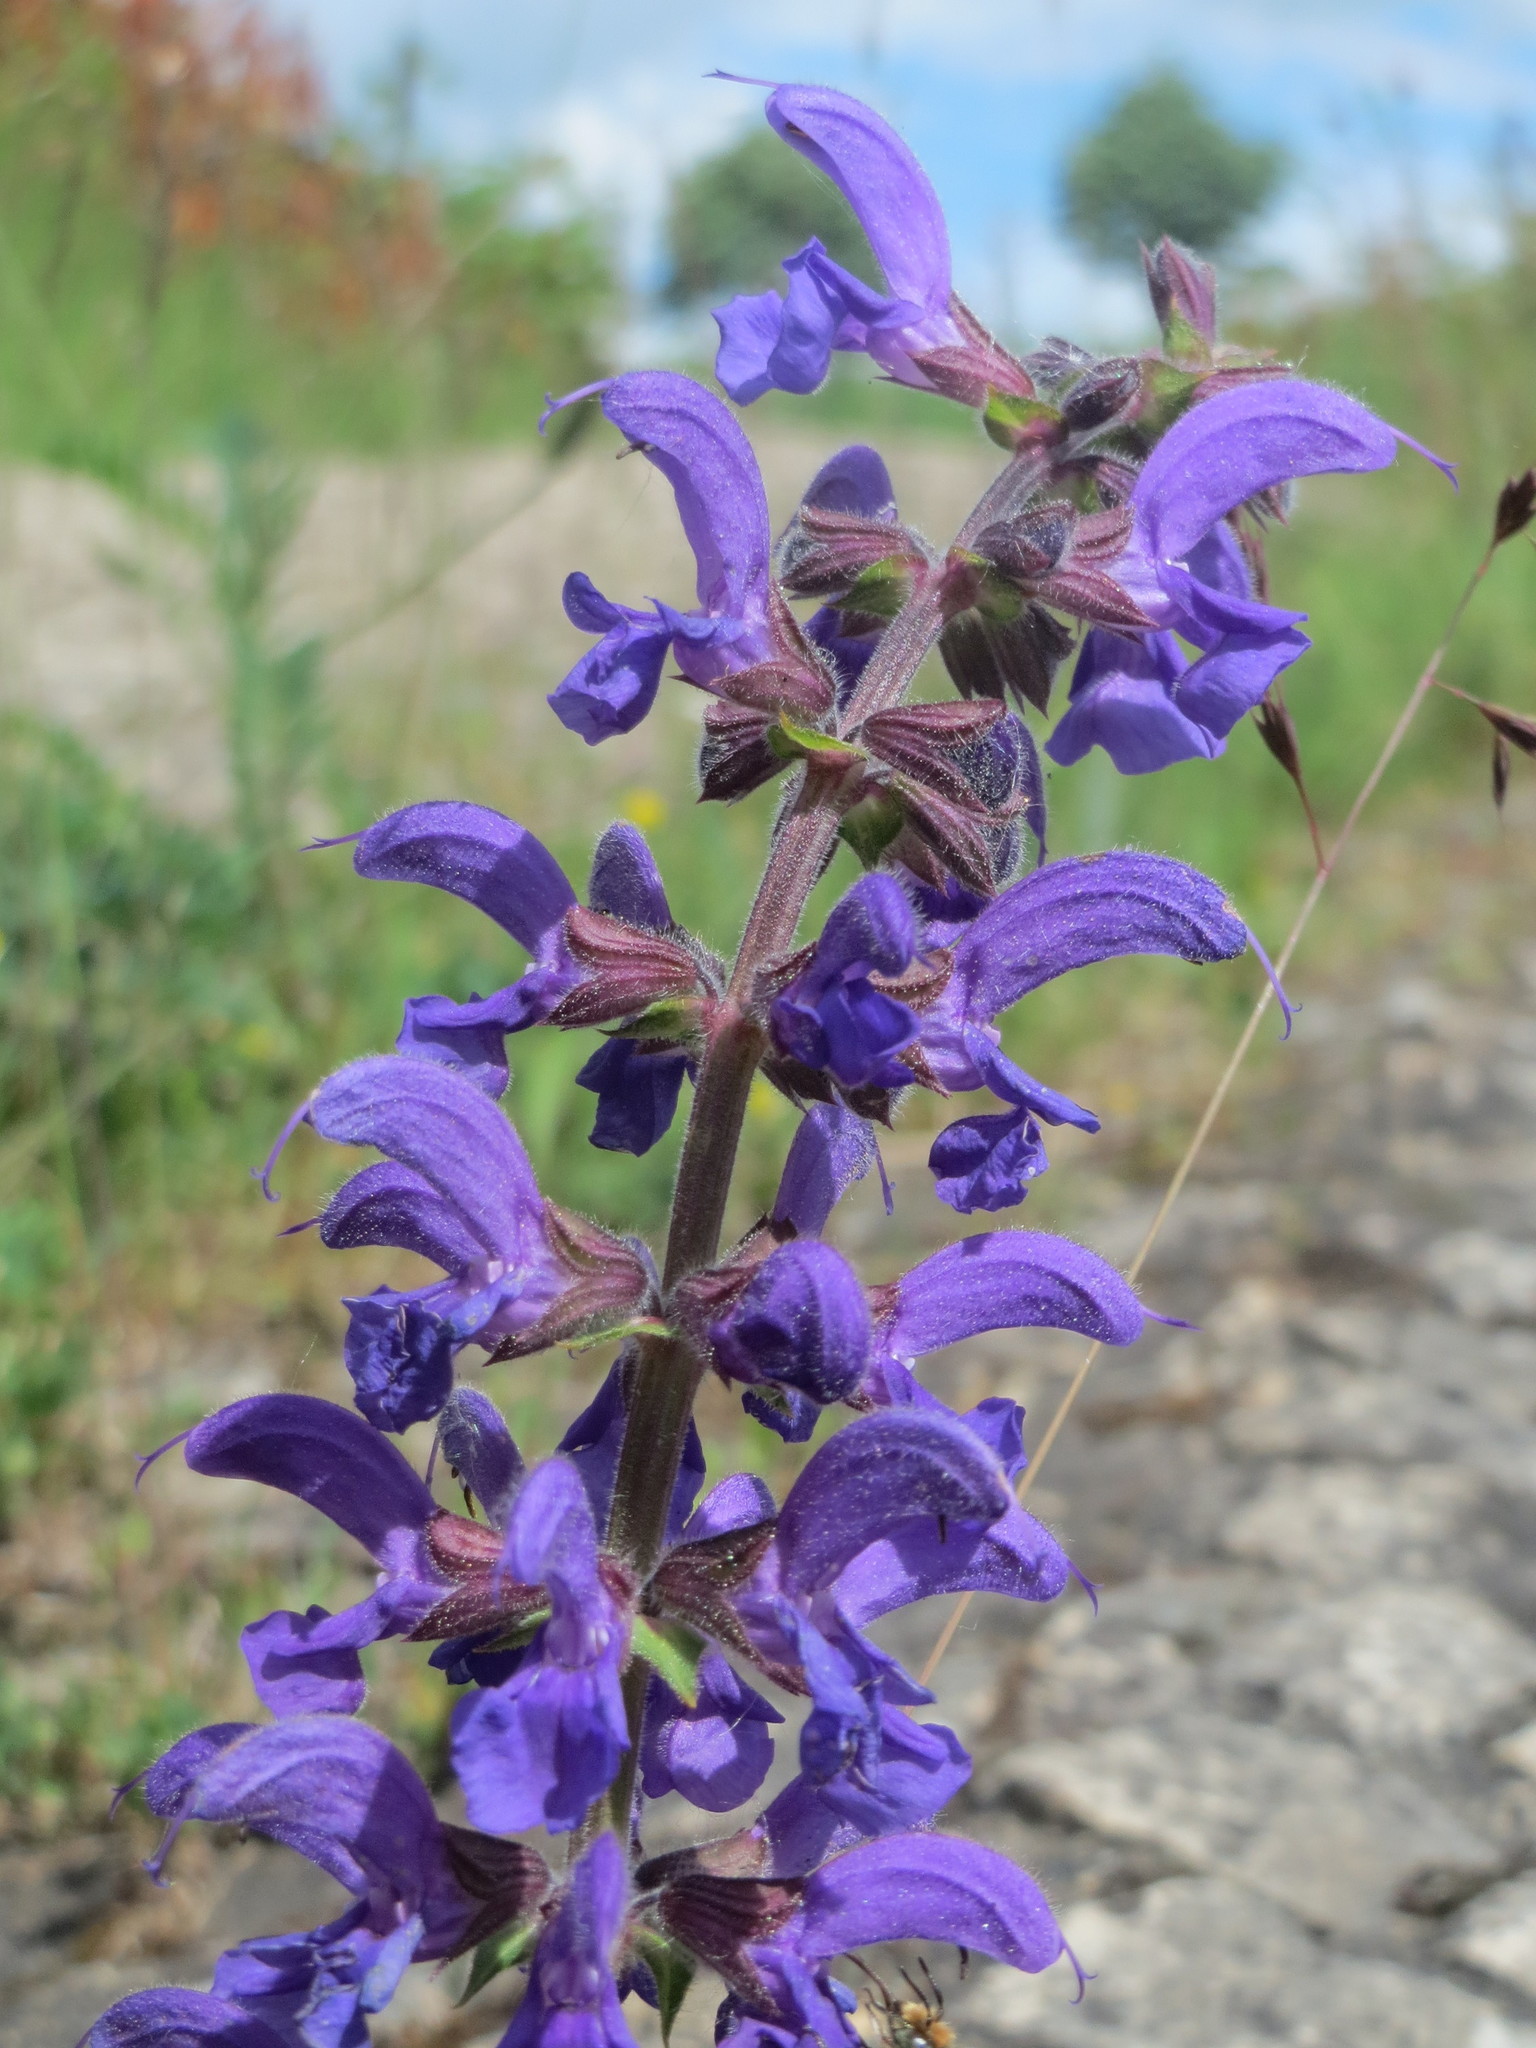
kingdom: Plantae
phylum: Tracheophyta
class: Magnoliopsida
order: Lamiales
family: Lamiaceae
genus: Salvia
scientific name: Salvia pratensis
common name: Meadow sage
